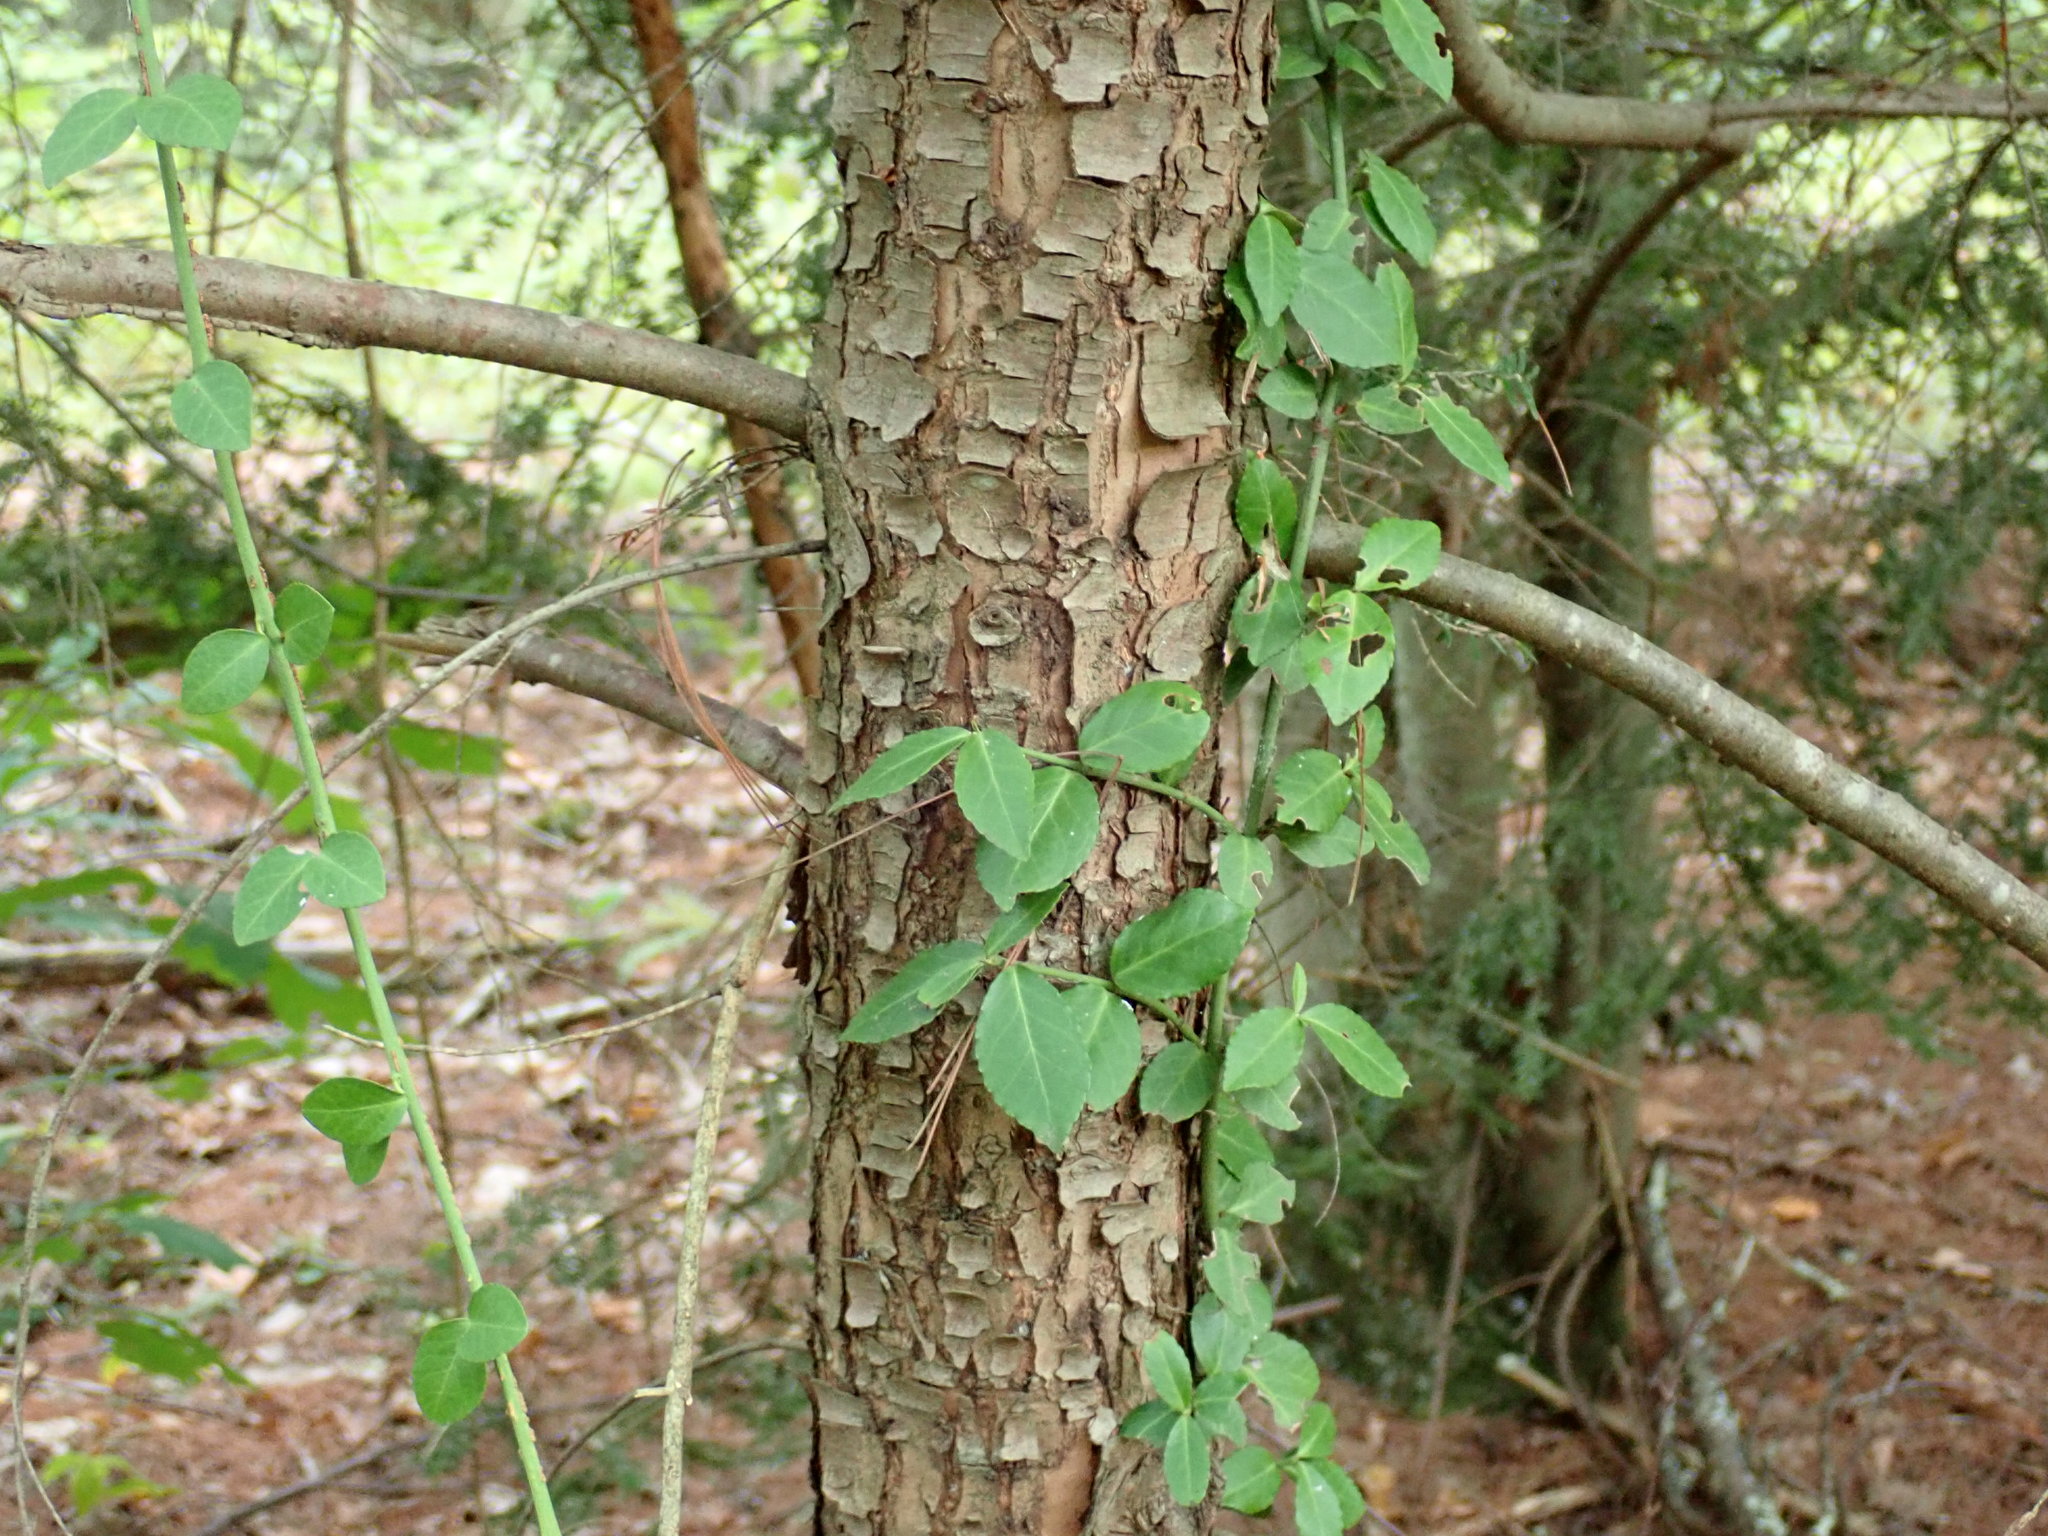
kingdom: Plantae
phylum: Tracheophyta
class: Magnoliopsida
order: Celastrales
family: Celastraceae
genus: Euonymus
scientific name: Euonymus fortunei
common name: Climbing euonymus
